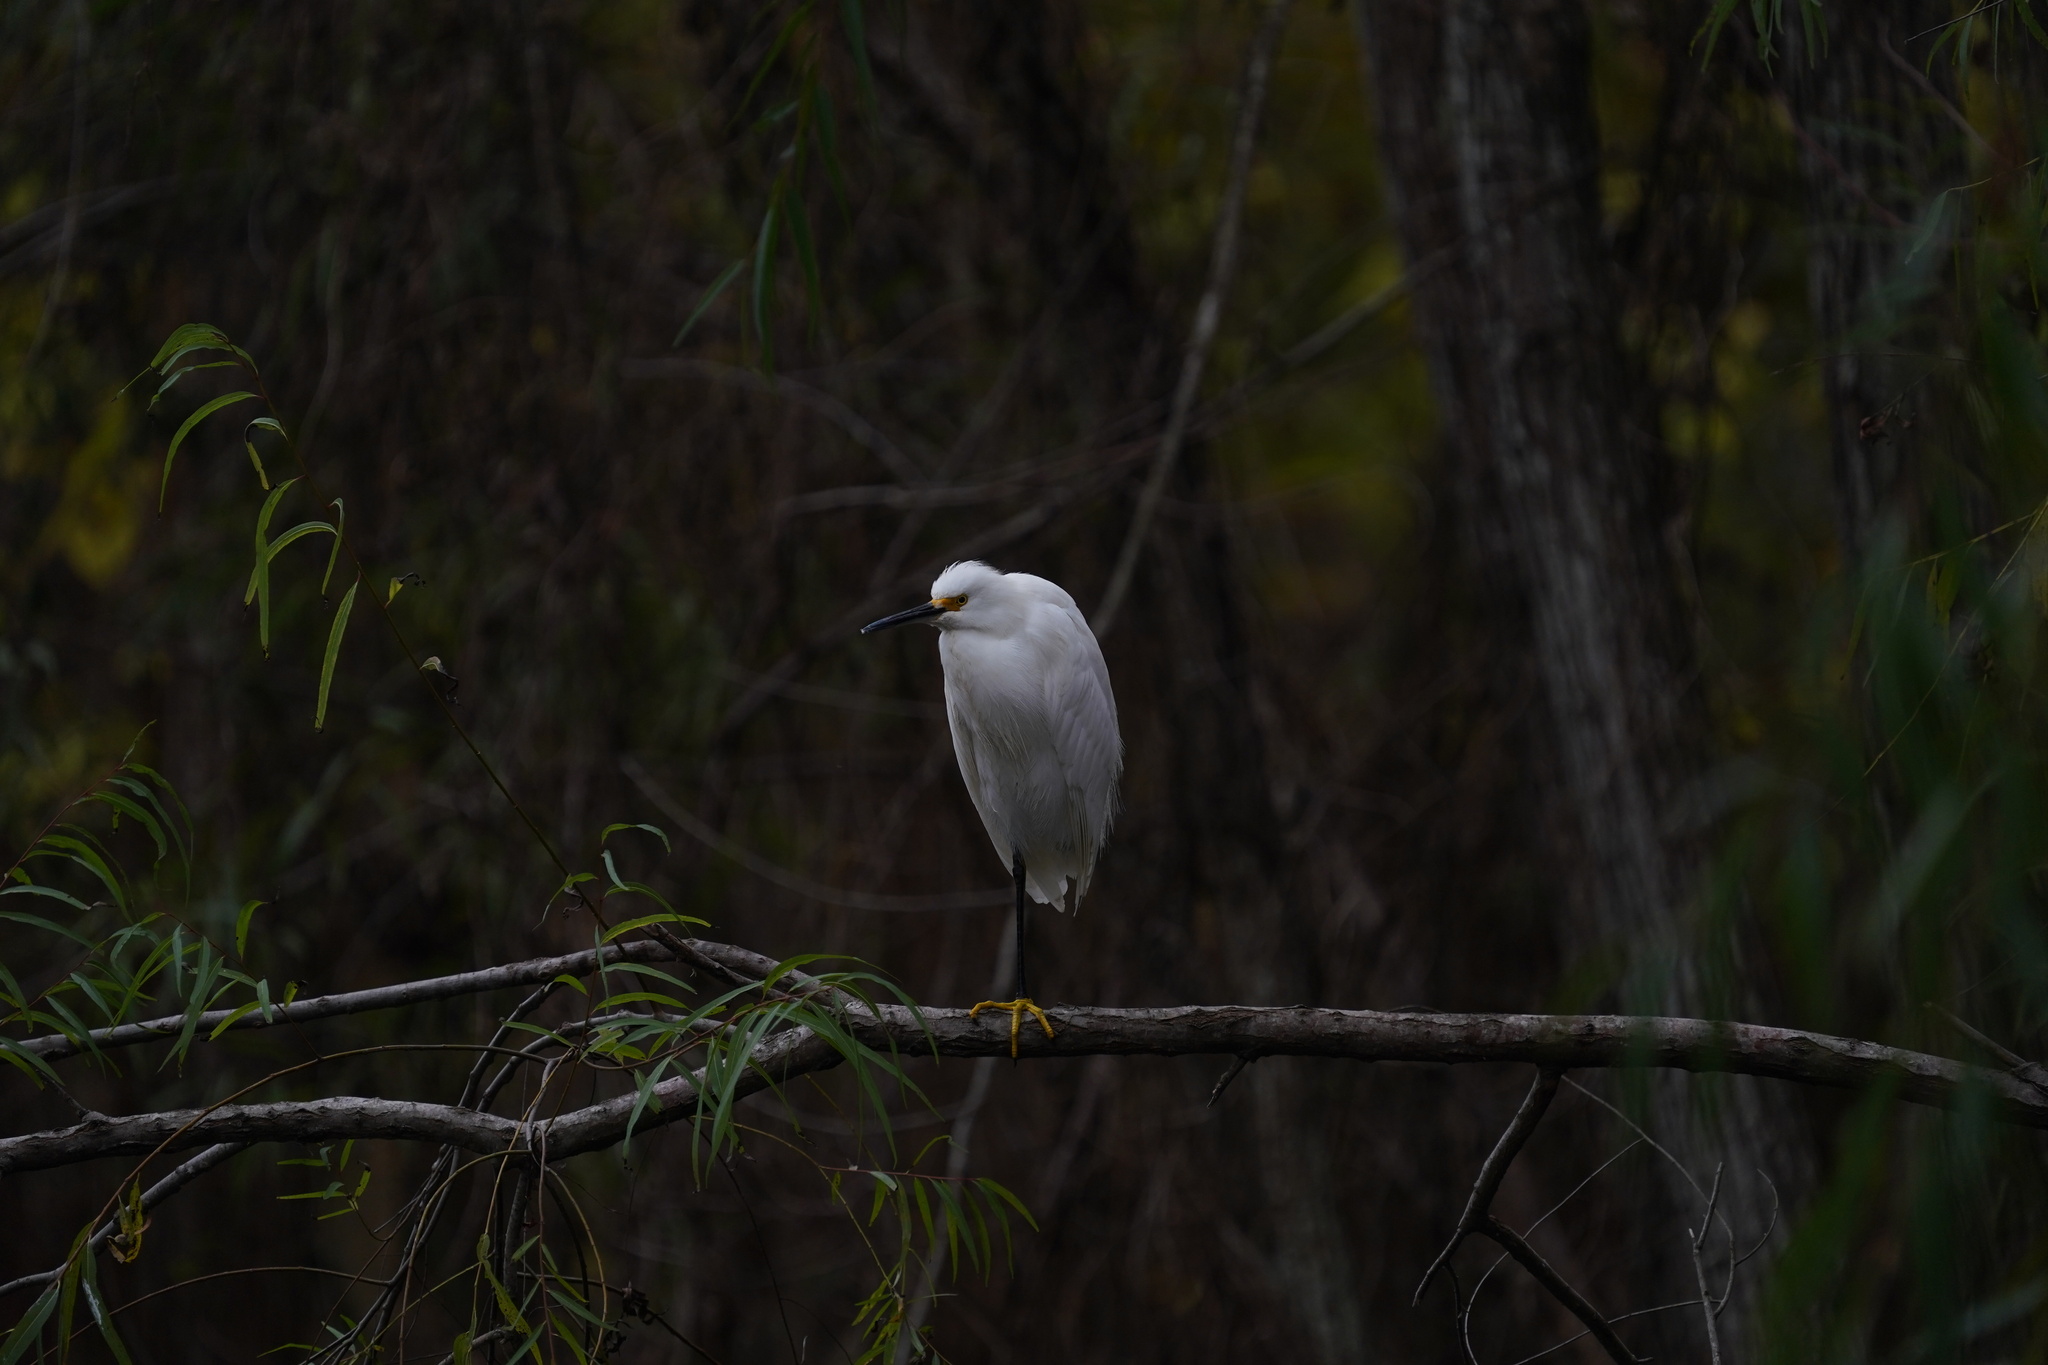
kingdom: Animalia
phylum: Chordata
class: Aves
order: Pelecaniformes
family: Ardeidae
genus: Egretta
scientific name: Egretta thula
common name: Snowy egret
